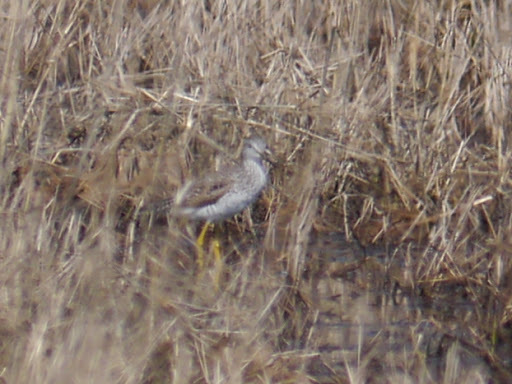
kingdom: Animalia
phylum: Chordata
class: Aves
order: Charadriiformes
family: Scolopacidae
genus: Tringa
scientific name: Tringa
